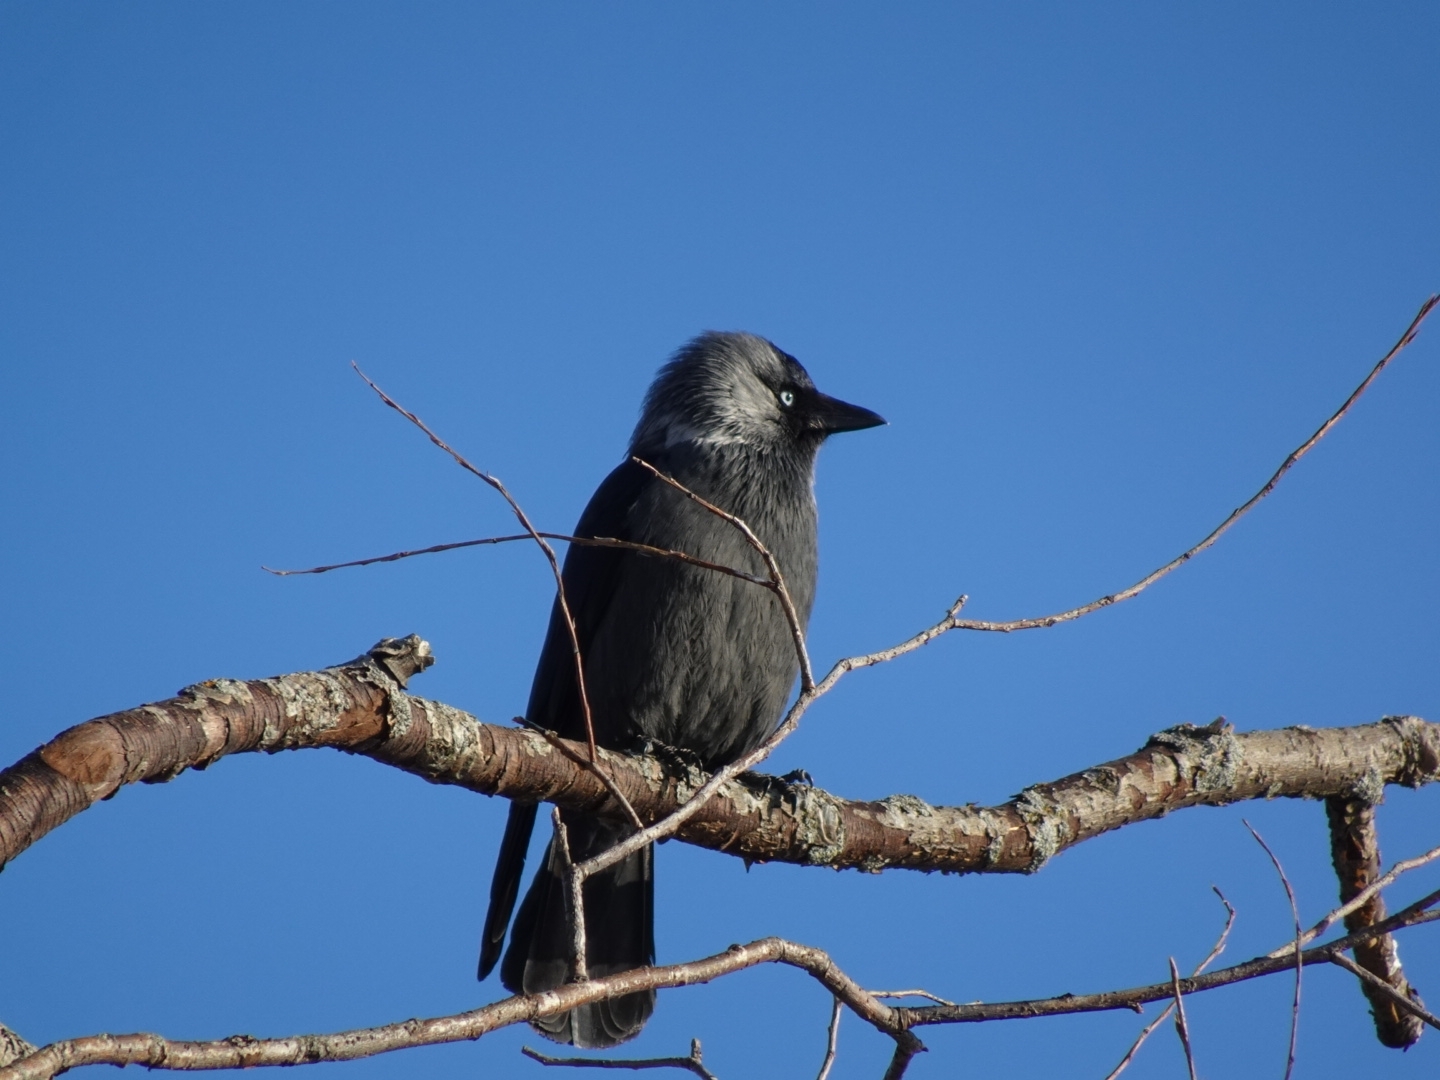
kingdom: Animalia
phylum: Chordata
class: Aves
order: Passeriformes
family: Corvidae
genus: Coloeus
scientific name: Coloeus monedula
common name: Western jackdaw
